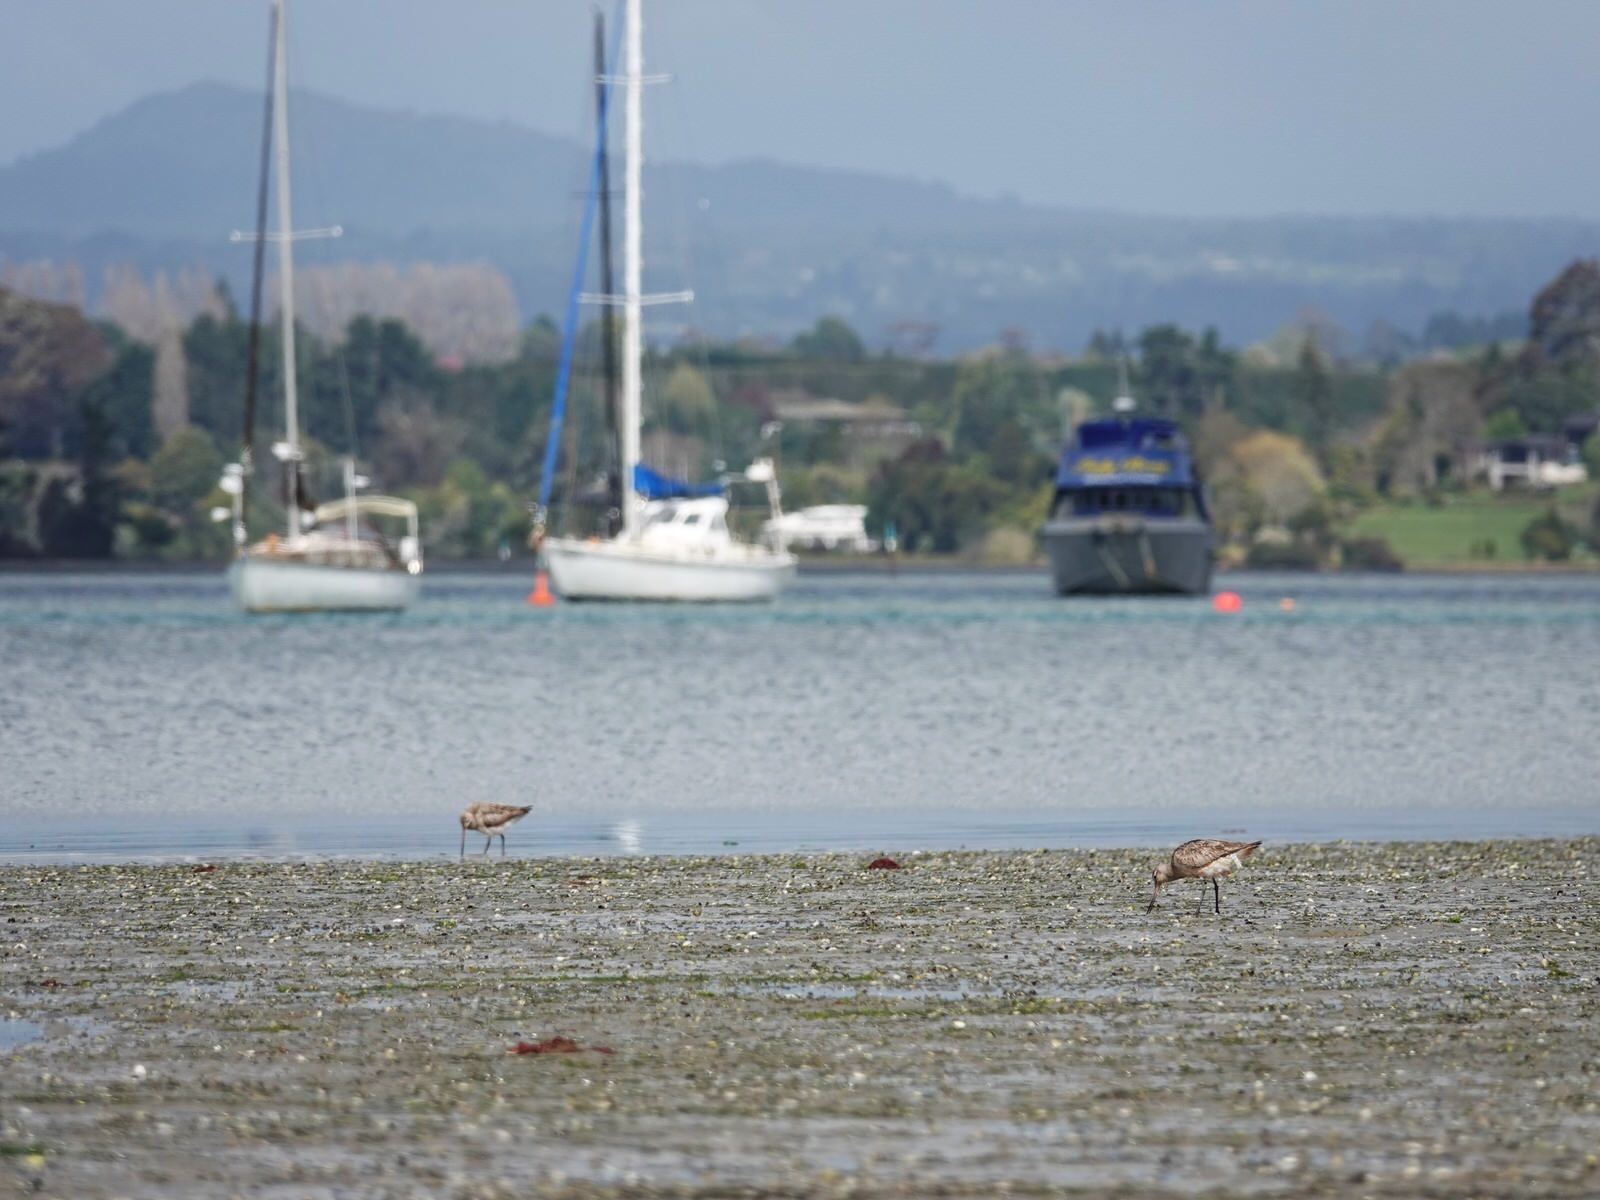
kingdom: Animalia
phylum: Chordata
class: Aves
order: Charadriiformes
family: Scolopacidae
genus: Limosa
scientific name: Limosa lapponica
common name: Bar-tailed godwit
